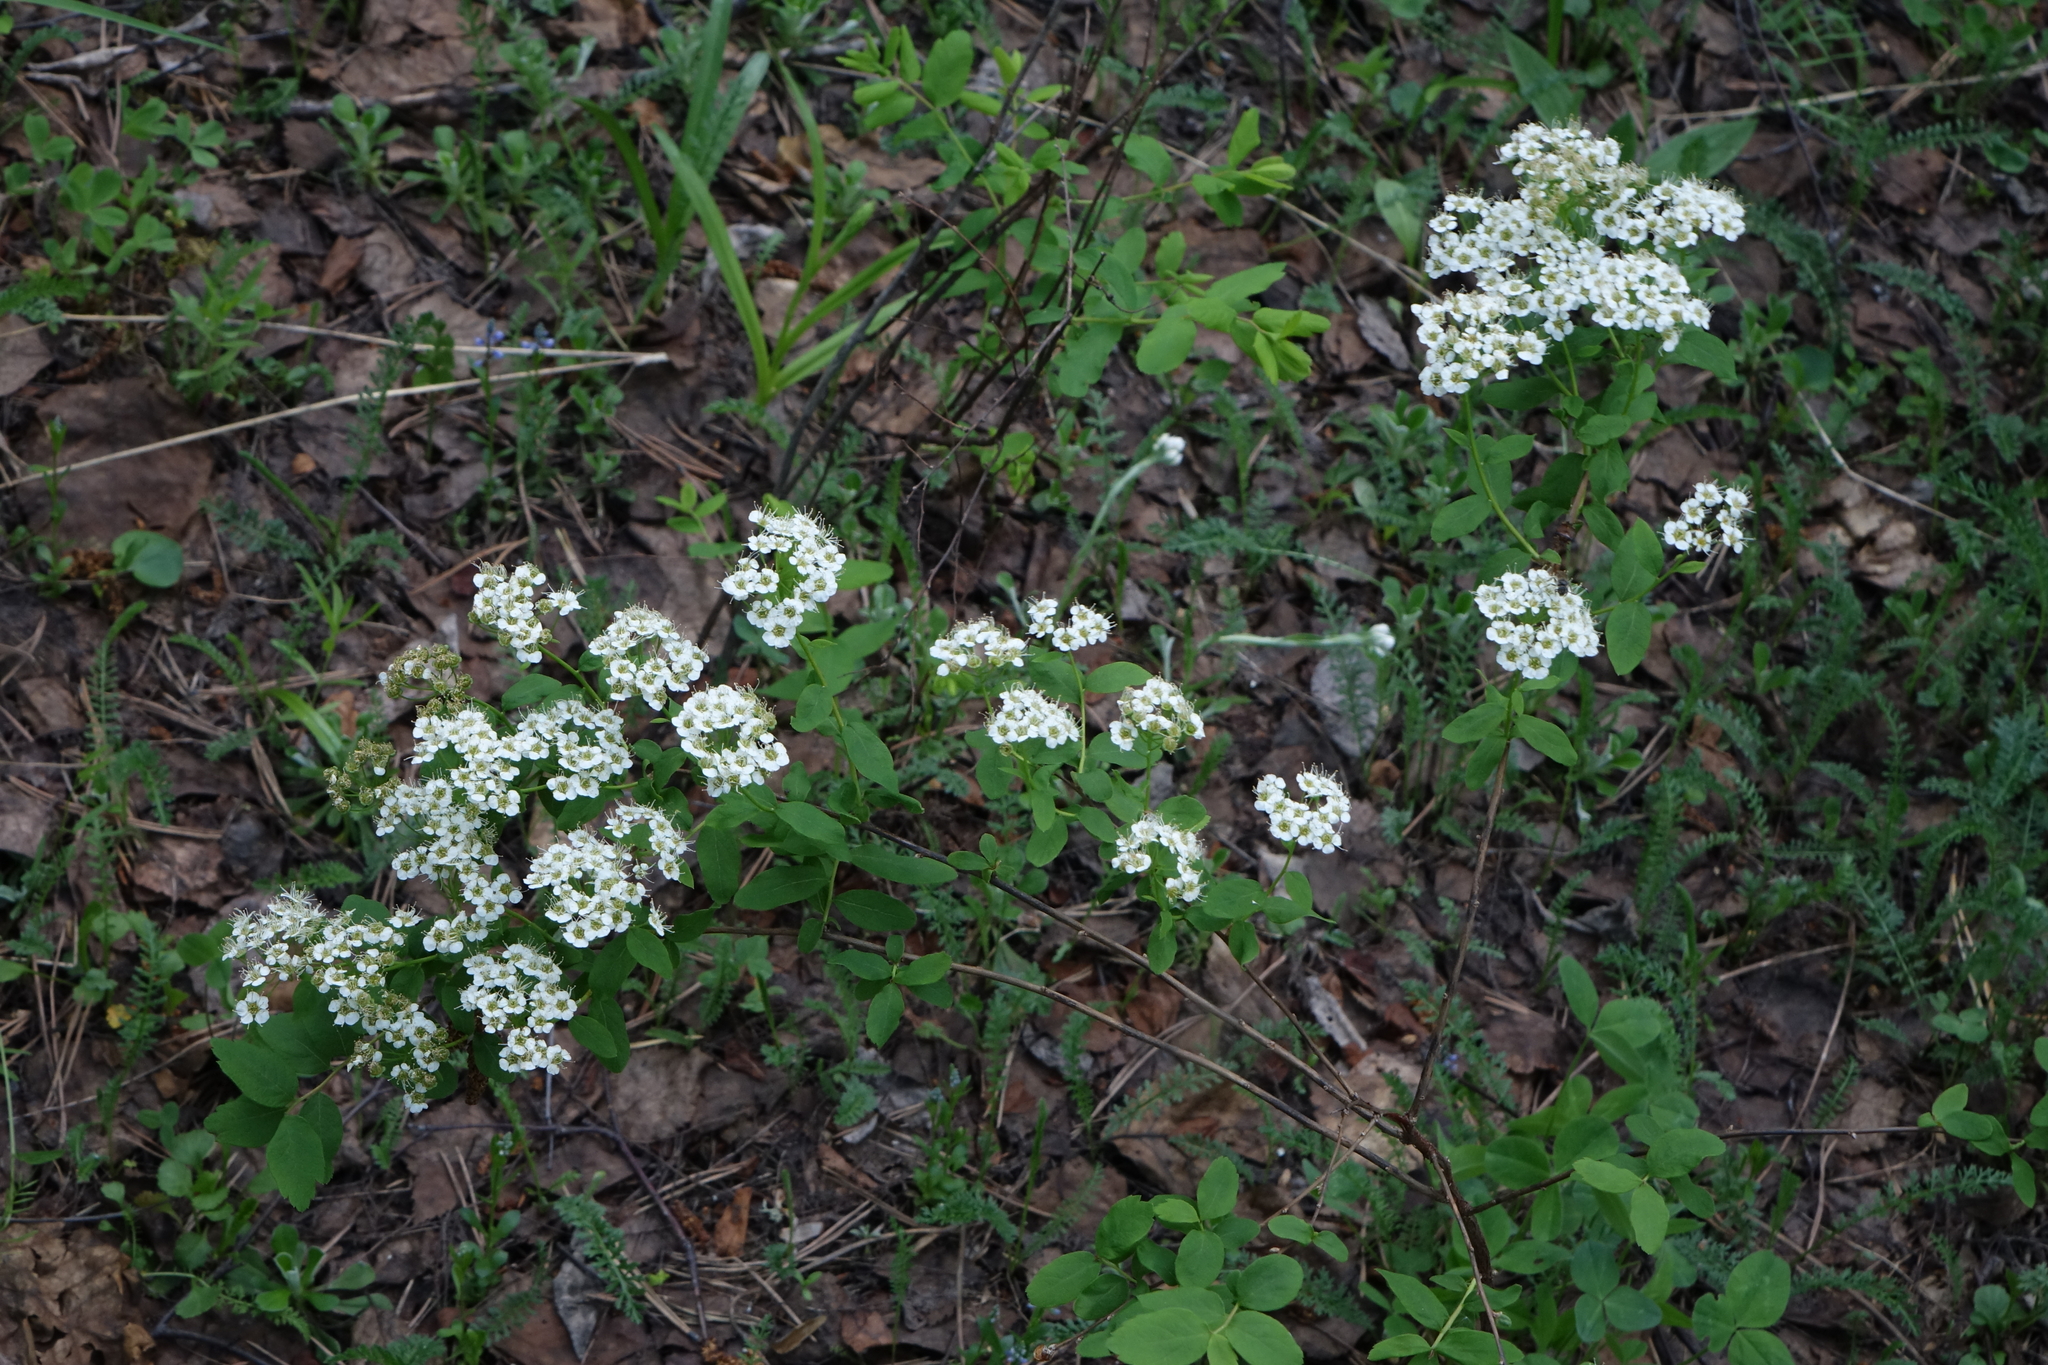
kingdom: Plantae
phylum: Tracheophyta
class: Magnoliopsida
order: Rosales
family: Rosaceae
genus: Spiraea
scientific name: Spiraea media
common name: Russian spiraea
